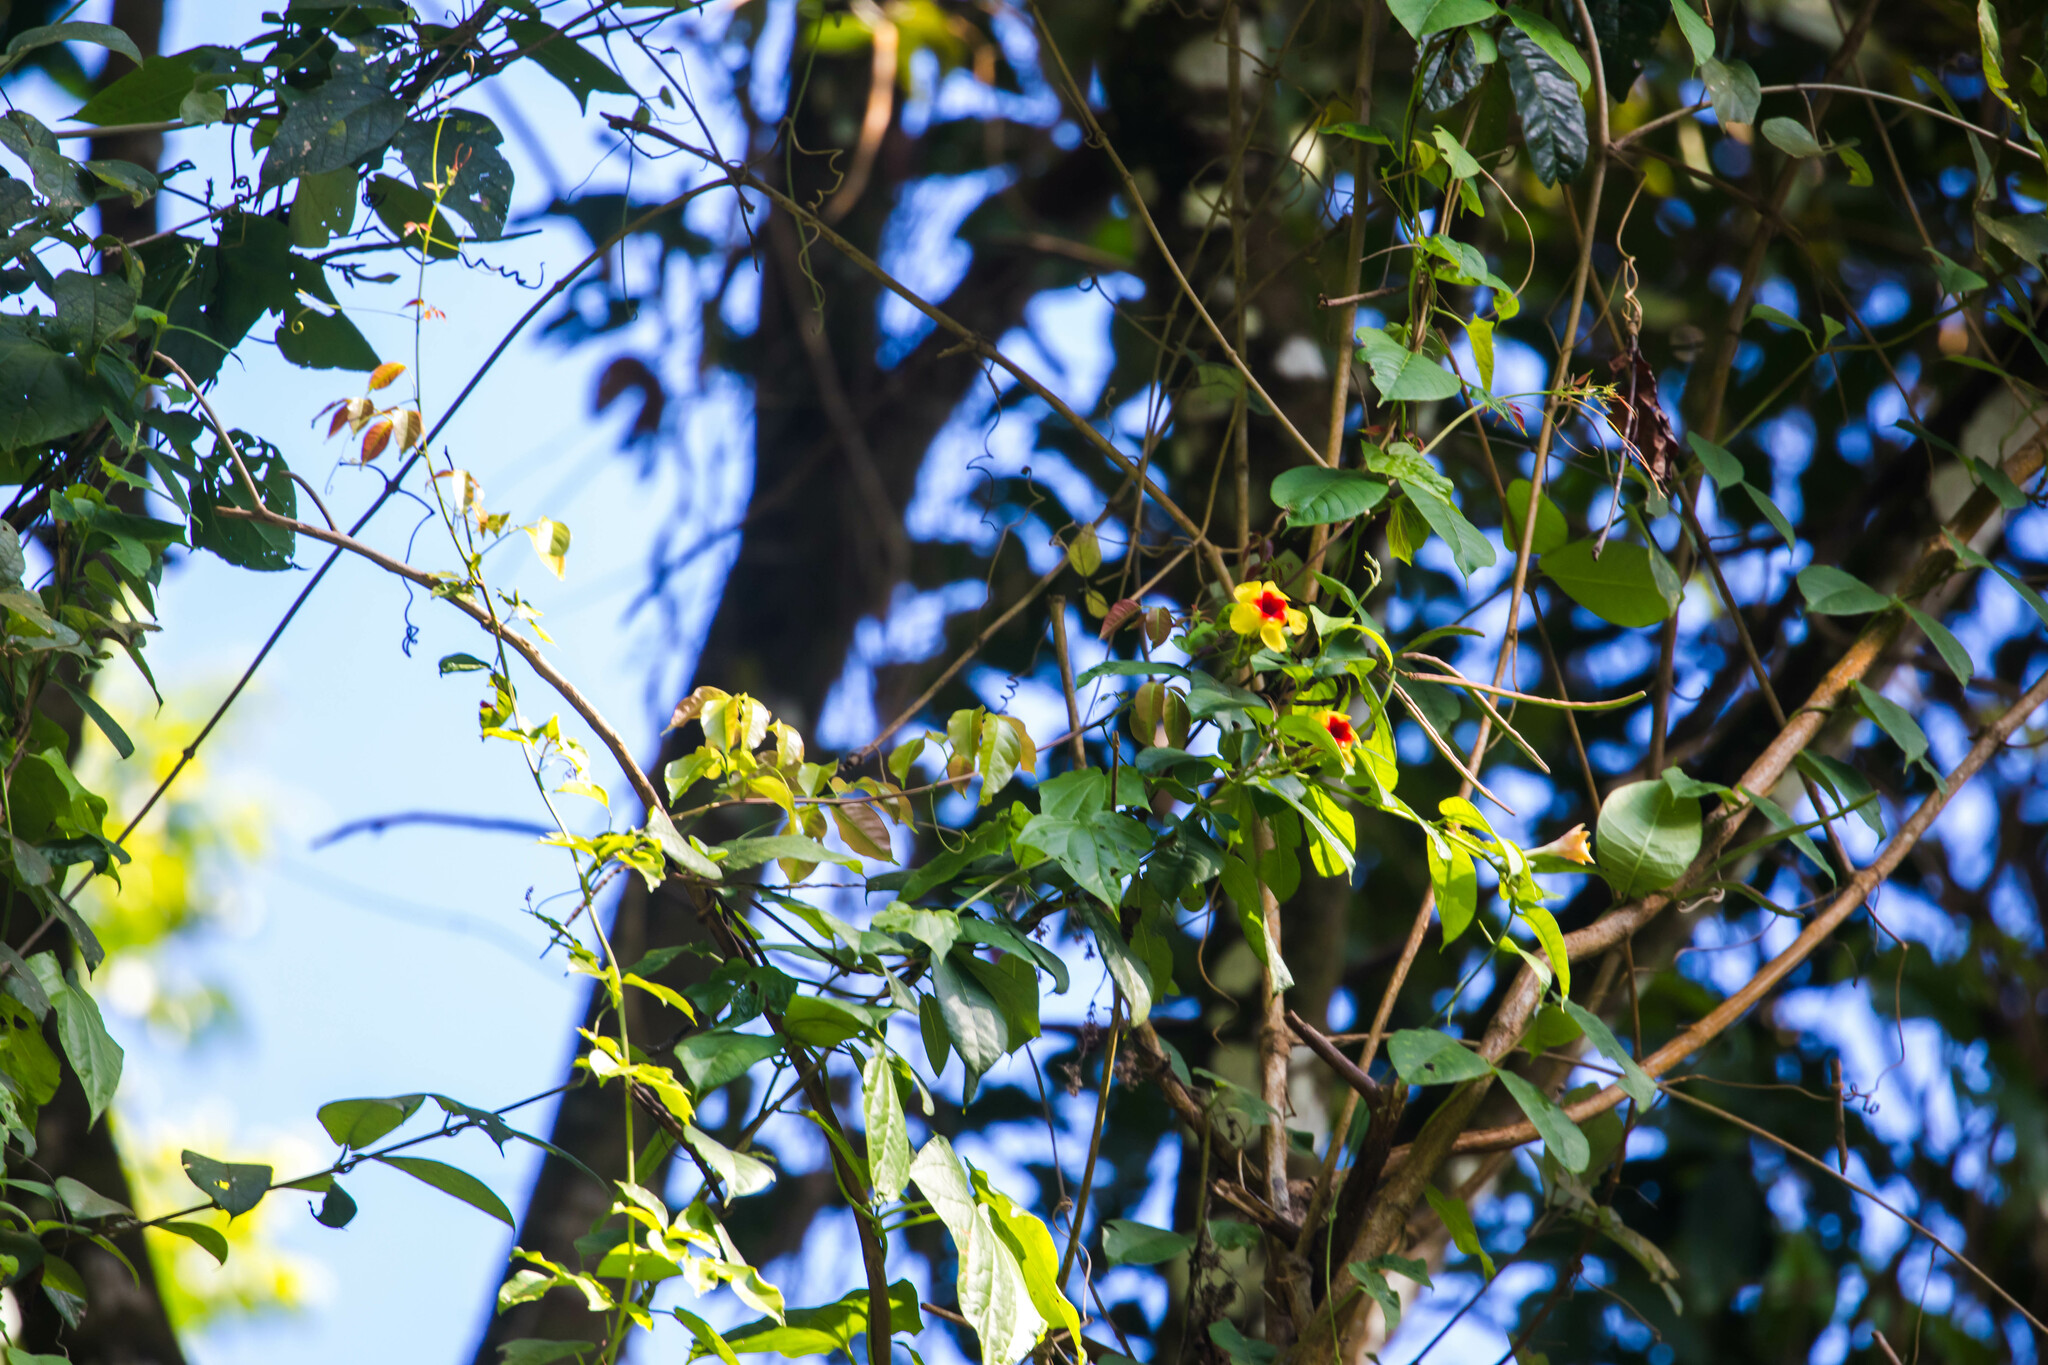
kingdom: Plantae
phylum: Tracheophyta
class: Magnoliopsida
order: Gentianales
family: Apocynaceae
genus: Mandevilla
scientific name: Mandevilla hirsuta
